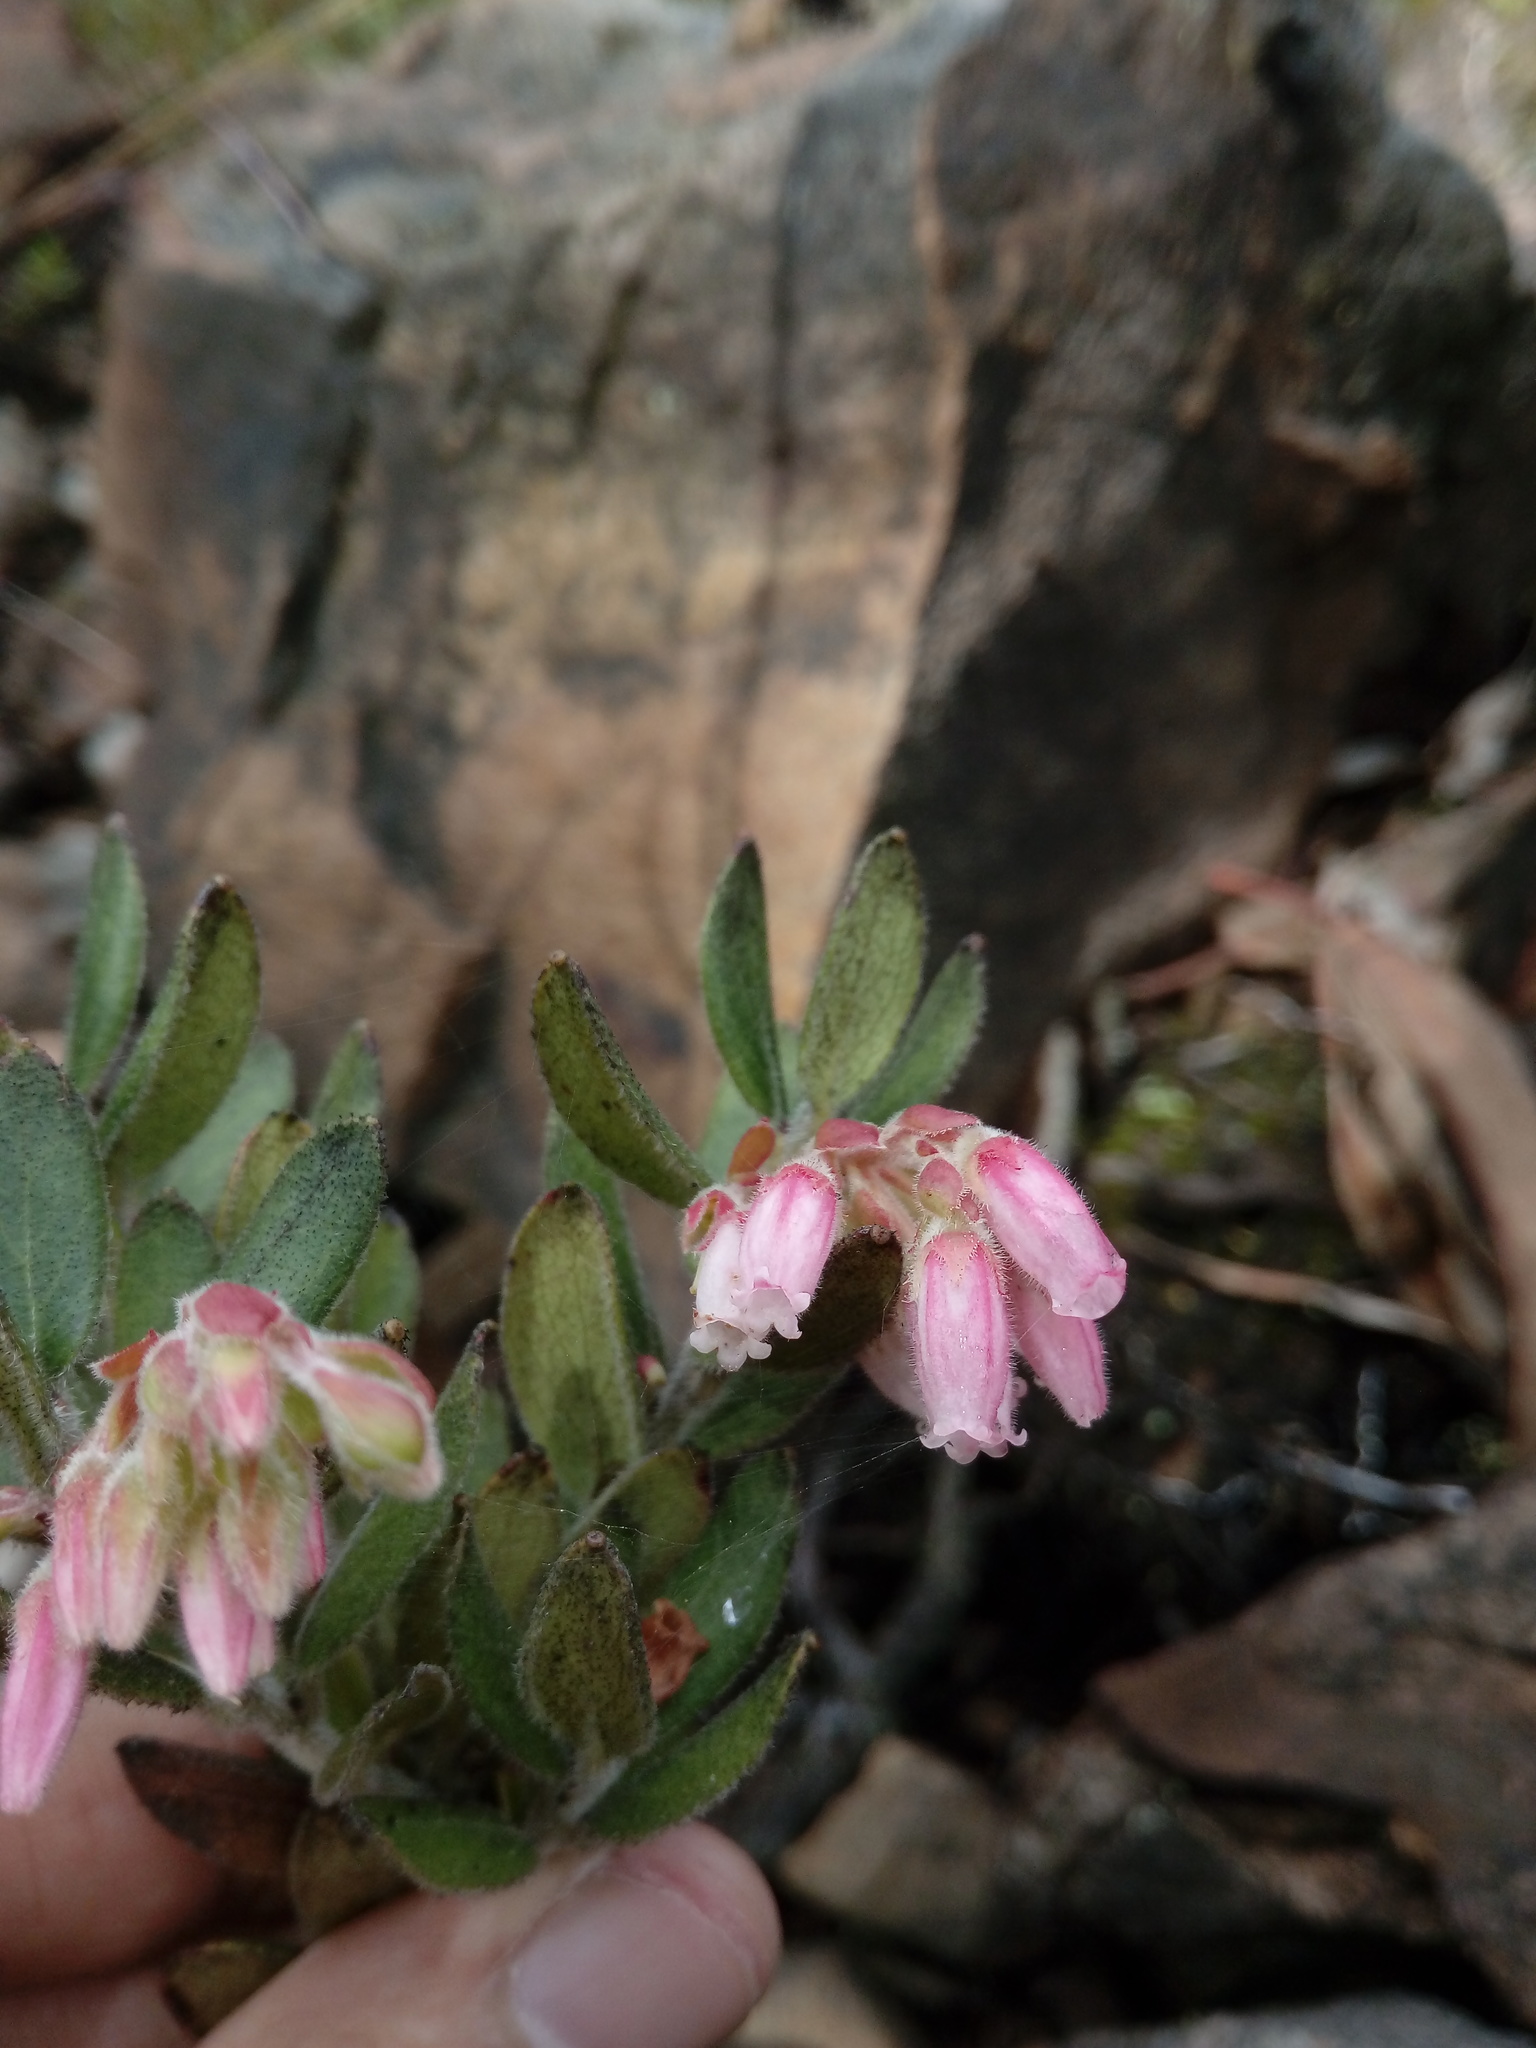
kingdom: Plantae
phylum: Tracheophyta
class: Magnoliopsida
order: Ericales
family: Ericaceae
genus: Gaylussacia
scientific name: Gaylussacia buxifolia
